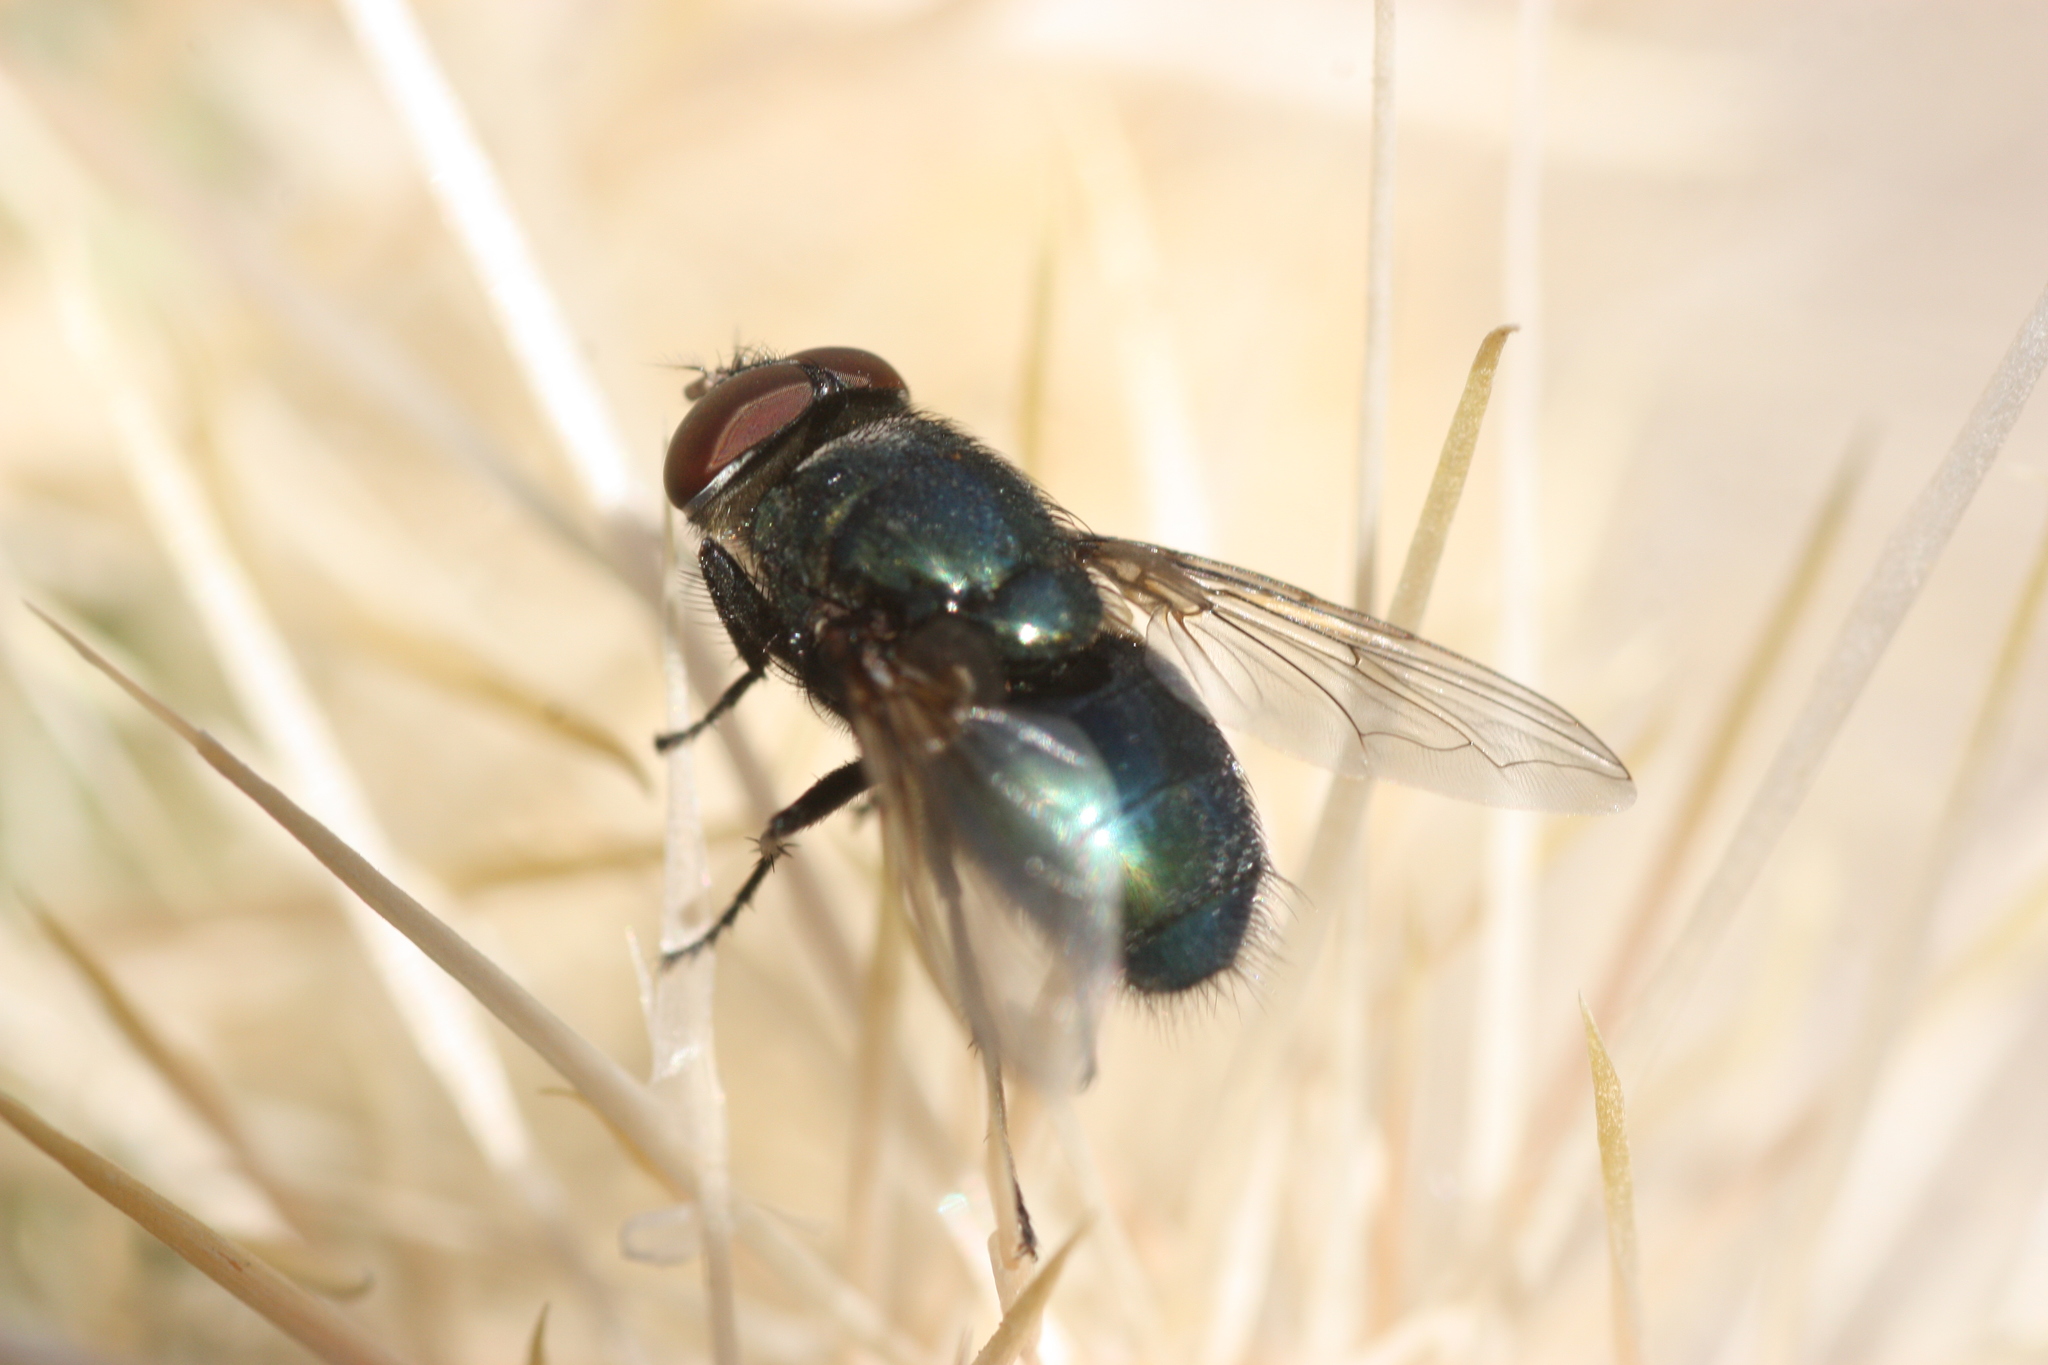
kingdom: Animalia
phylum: Arthropoda
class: Insecta
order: Diptera
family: Calliphoridae
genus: Phormia
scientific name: Phormia regina
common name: Black blow fly
